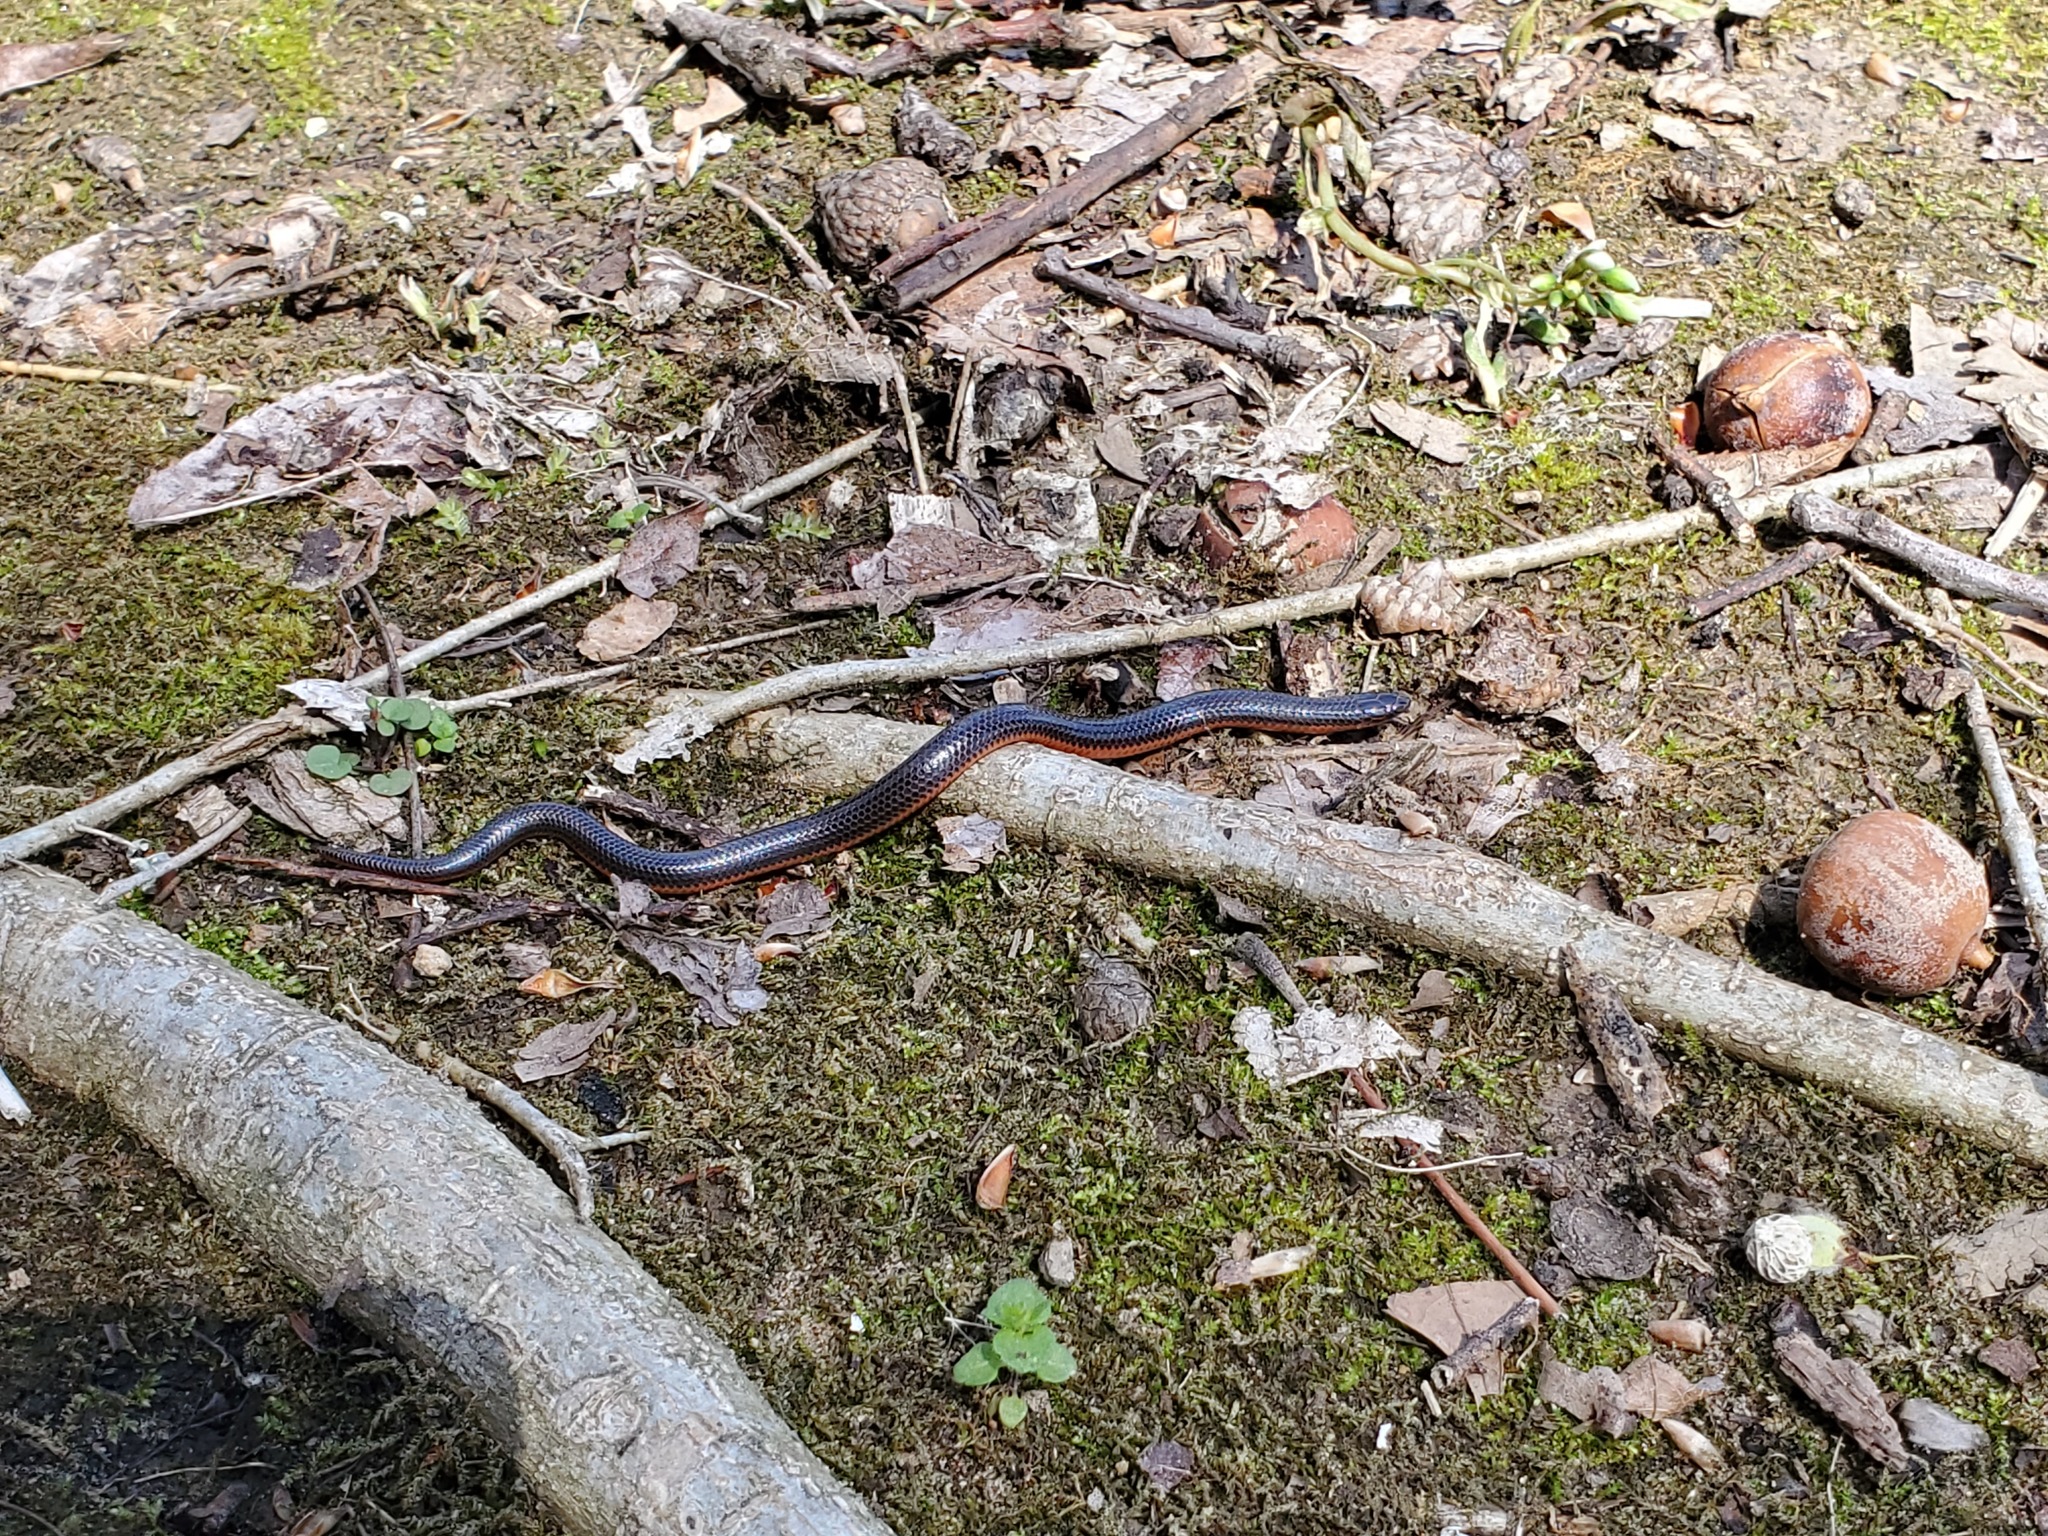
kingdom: Animalia
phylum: Chordata
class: Squamata
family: Colubridae
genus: Carphophis
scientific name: Carphophis amoenus
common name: Eastern worm snake
